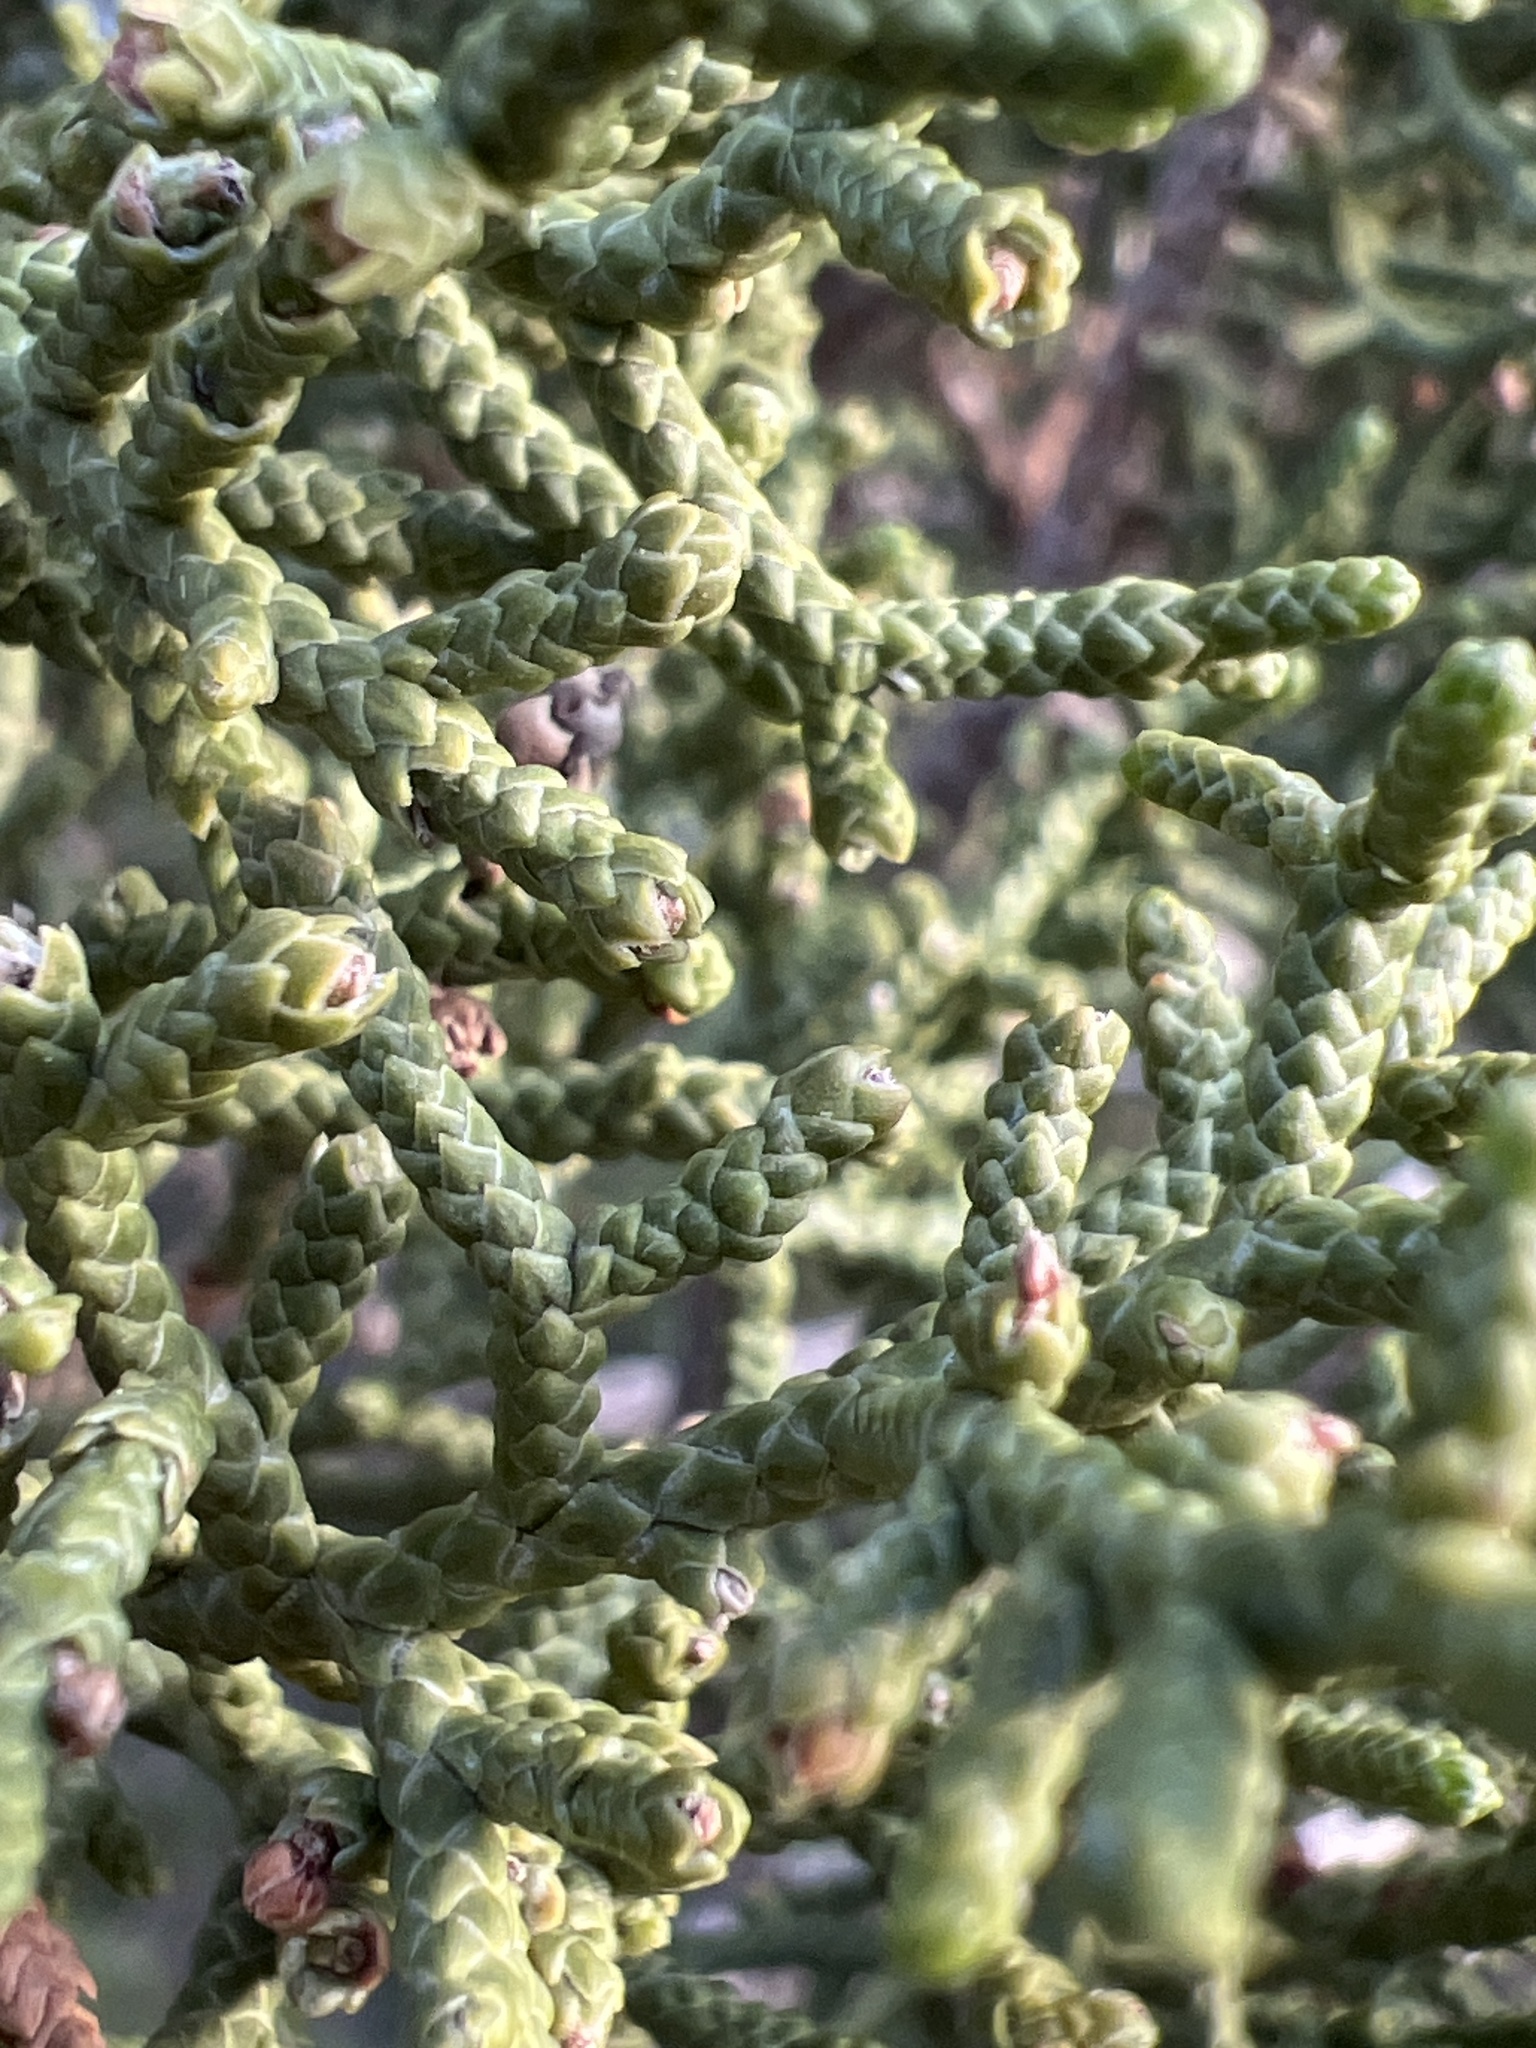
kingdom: Plantae
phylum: Tracheophyta
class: Pinopsida
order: Pinales
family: Cupressaceae
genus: Juniperus
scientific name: Juniperus californica
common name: California juniper
